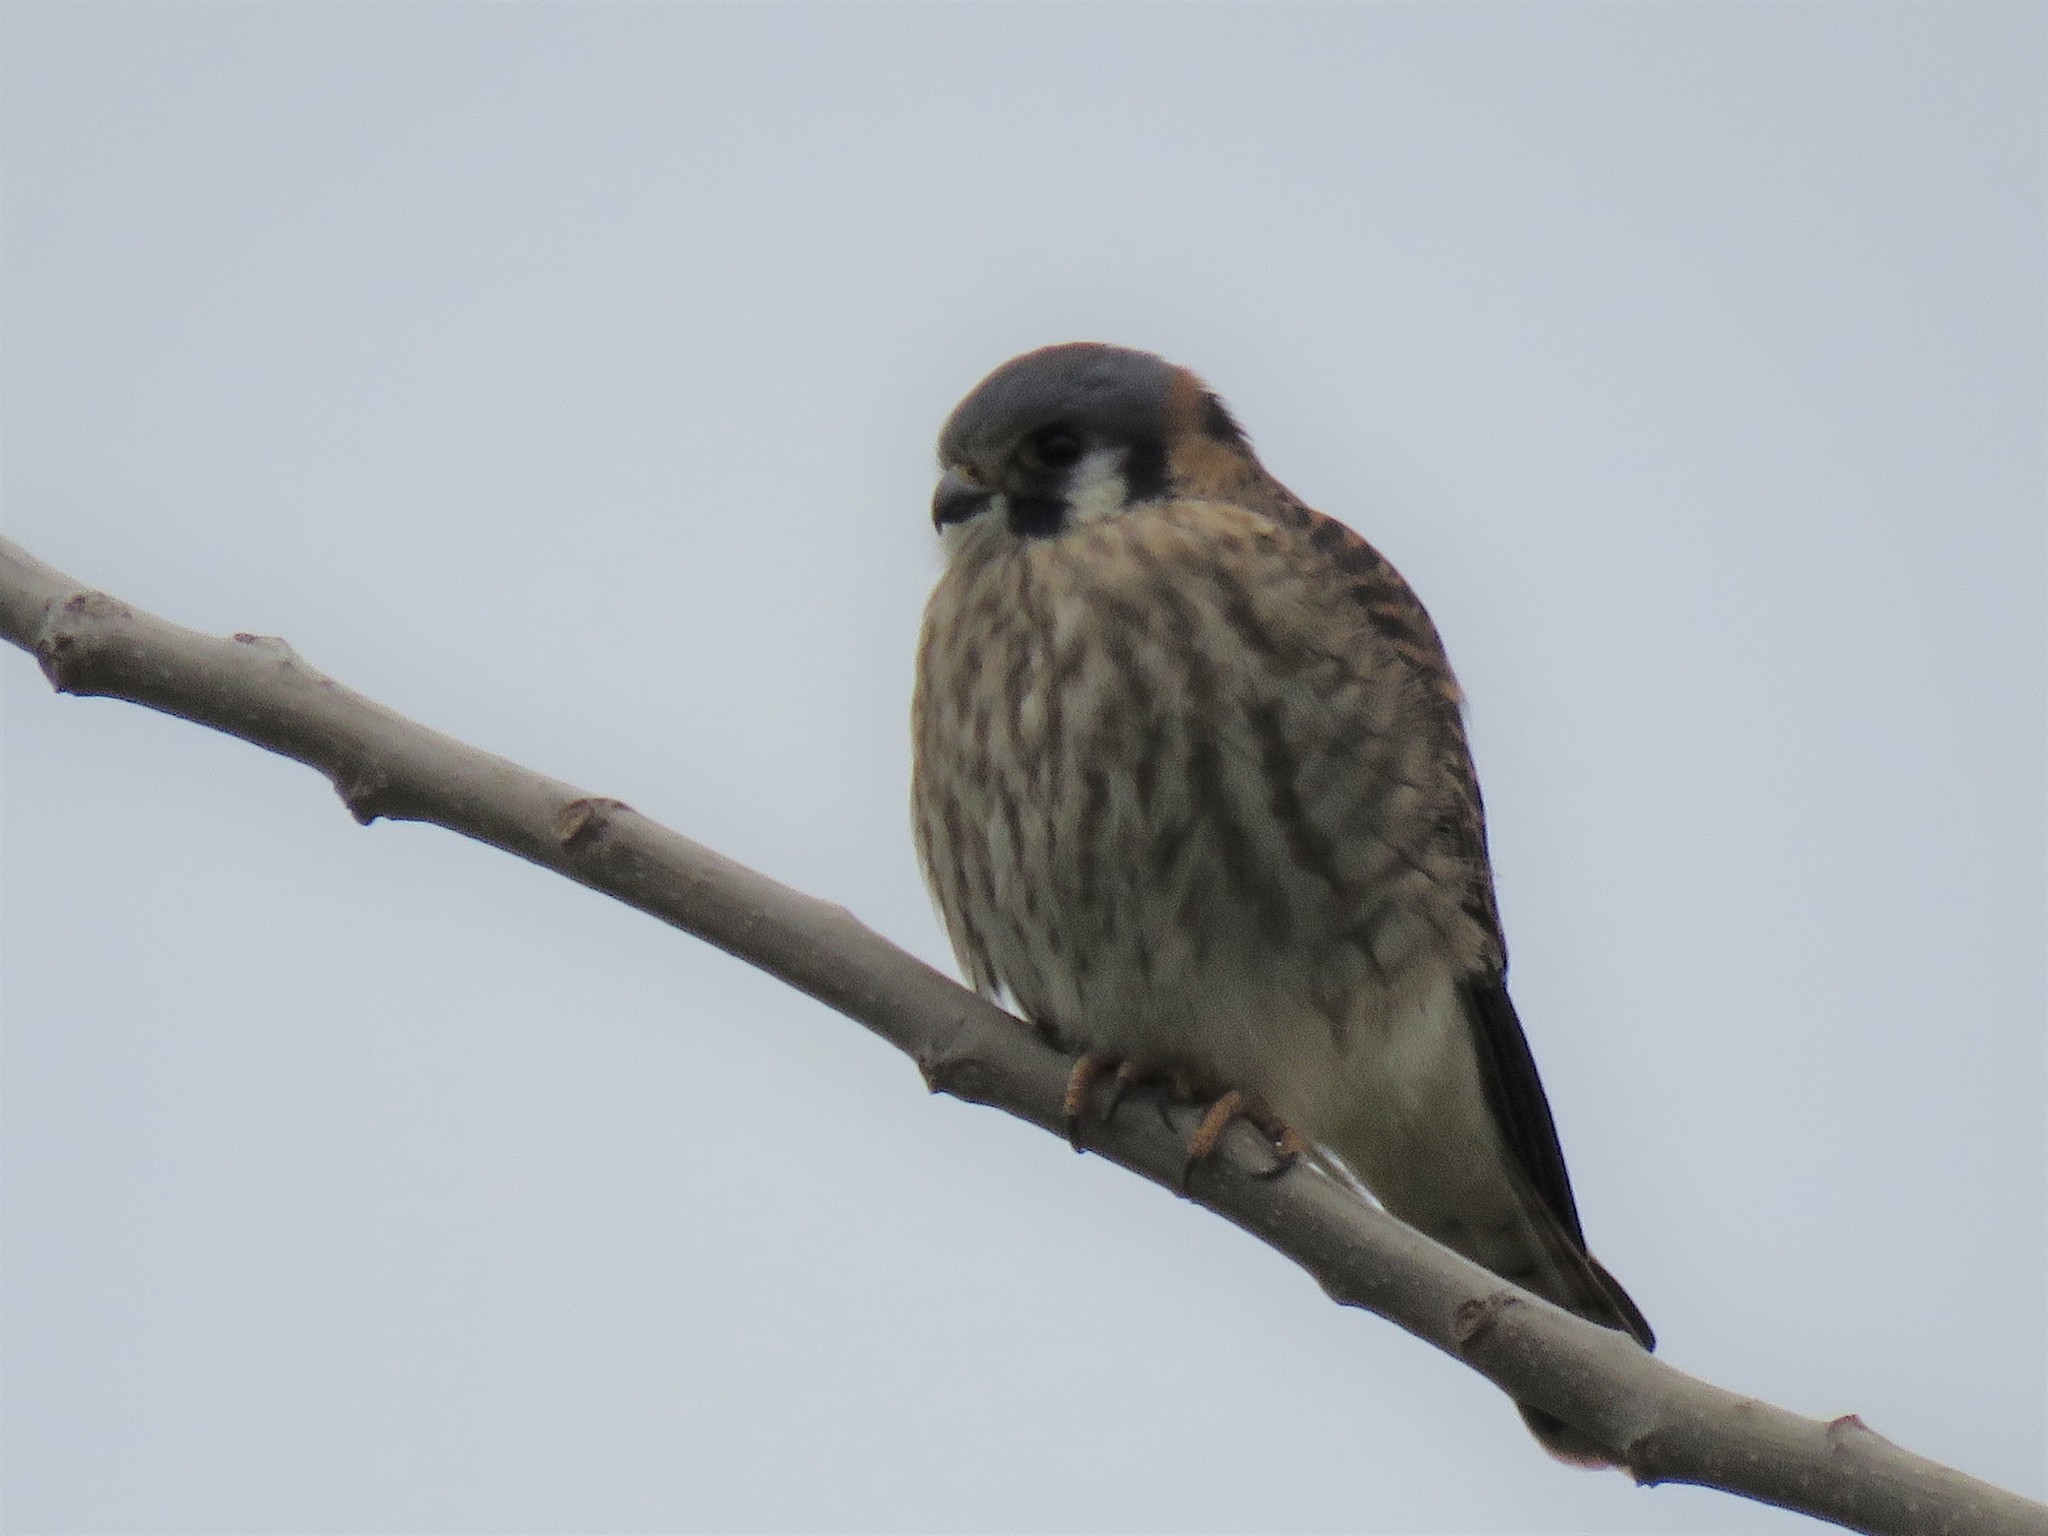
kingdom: Animalia
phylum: Chordata
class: Aves
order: Falconiformes
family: Falconidae
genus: Falco
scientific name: Falco sparverius
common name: American kestrel
